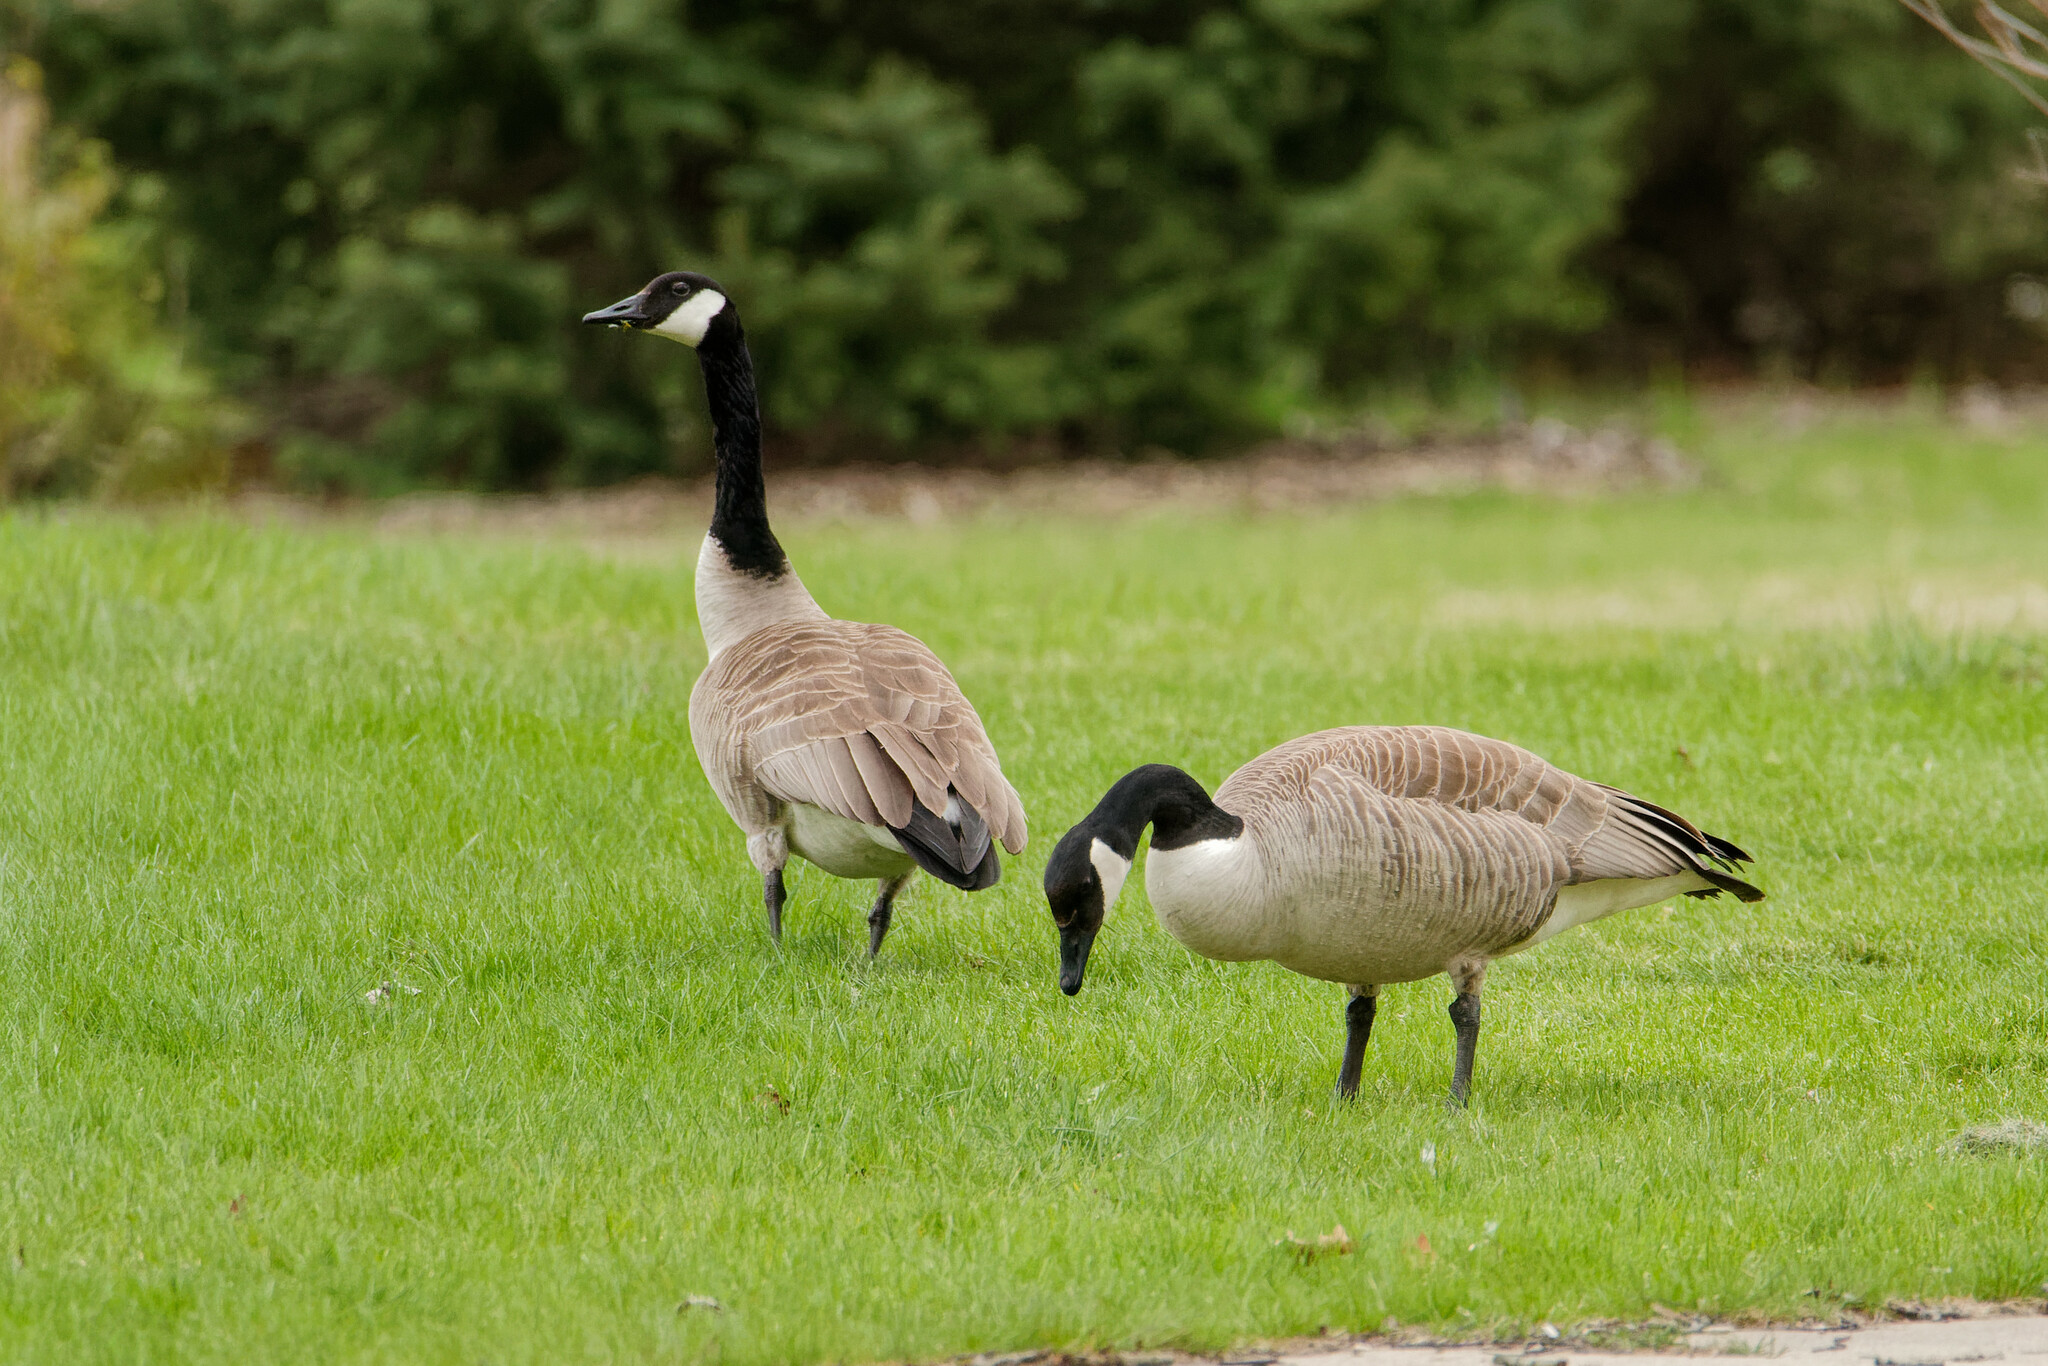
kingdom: Animalia
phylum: Chordata
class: Aves
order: Anseriformes
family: Anatidae
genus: Branta
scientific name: Branta canadensis
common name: Canada goose
